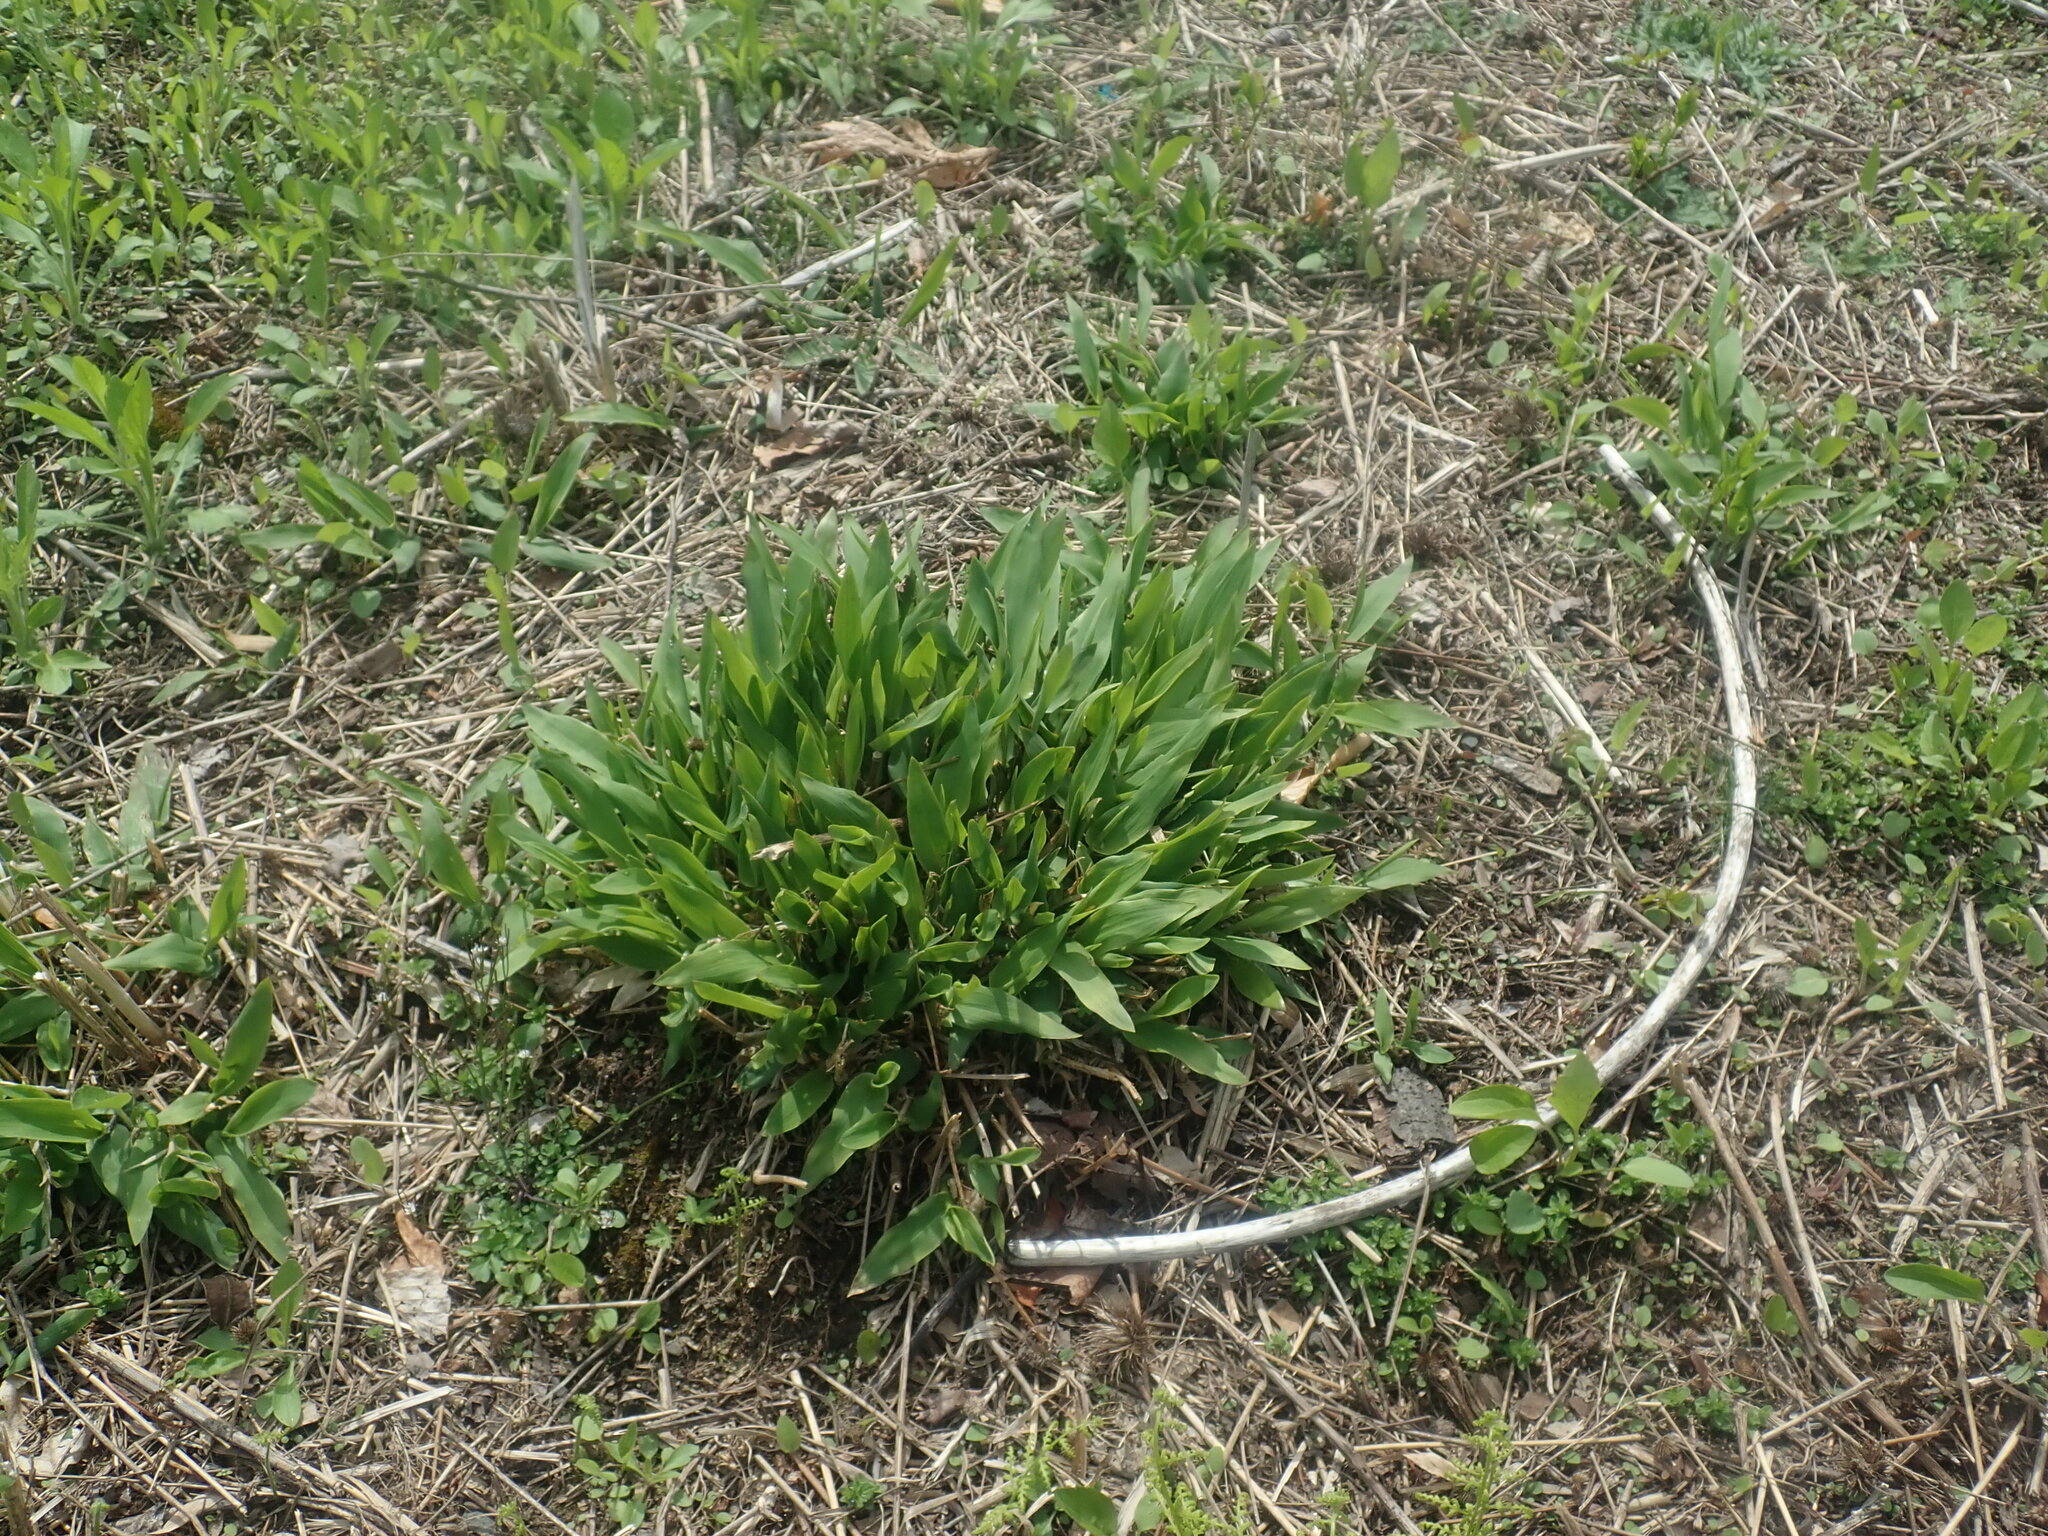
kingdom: Plantae
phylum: Tracheophyta
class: Liliopsida
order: Poales
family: Poaceae
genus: Dichanthelium
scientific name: Dichanthelium
